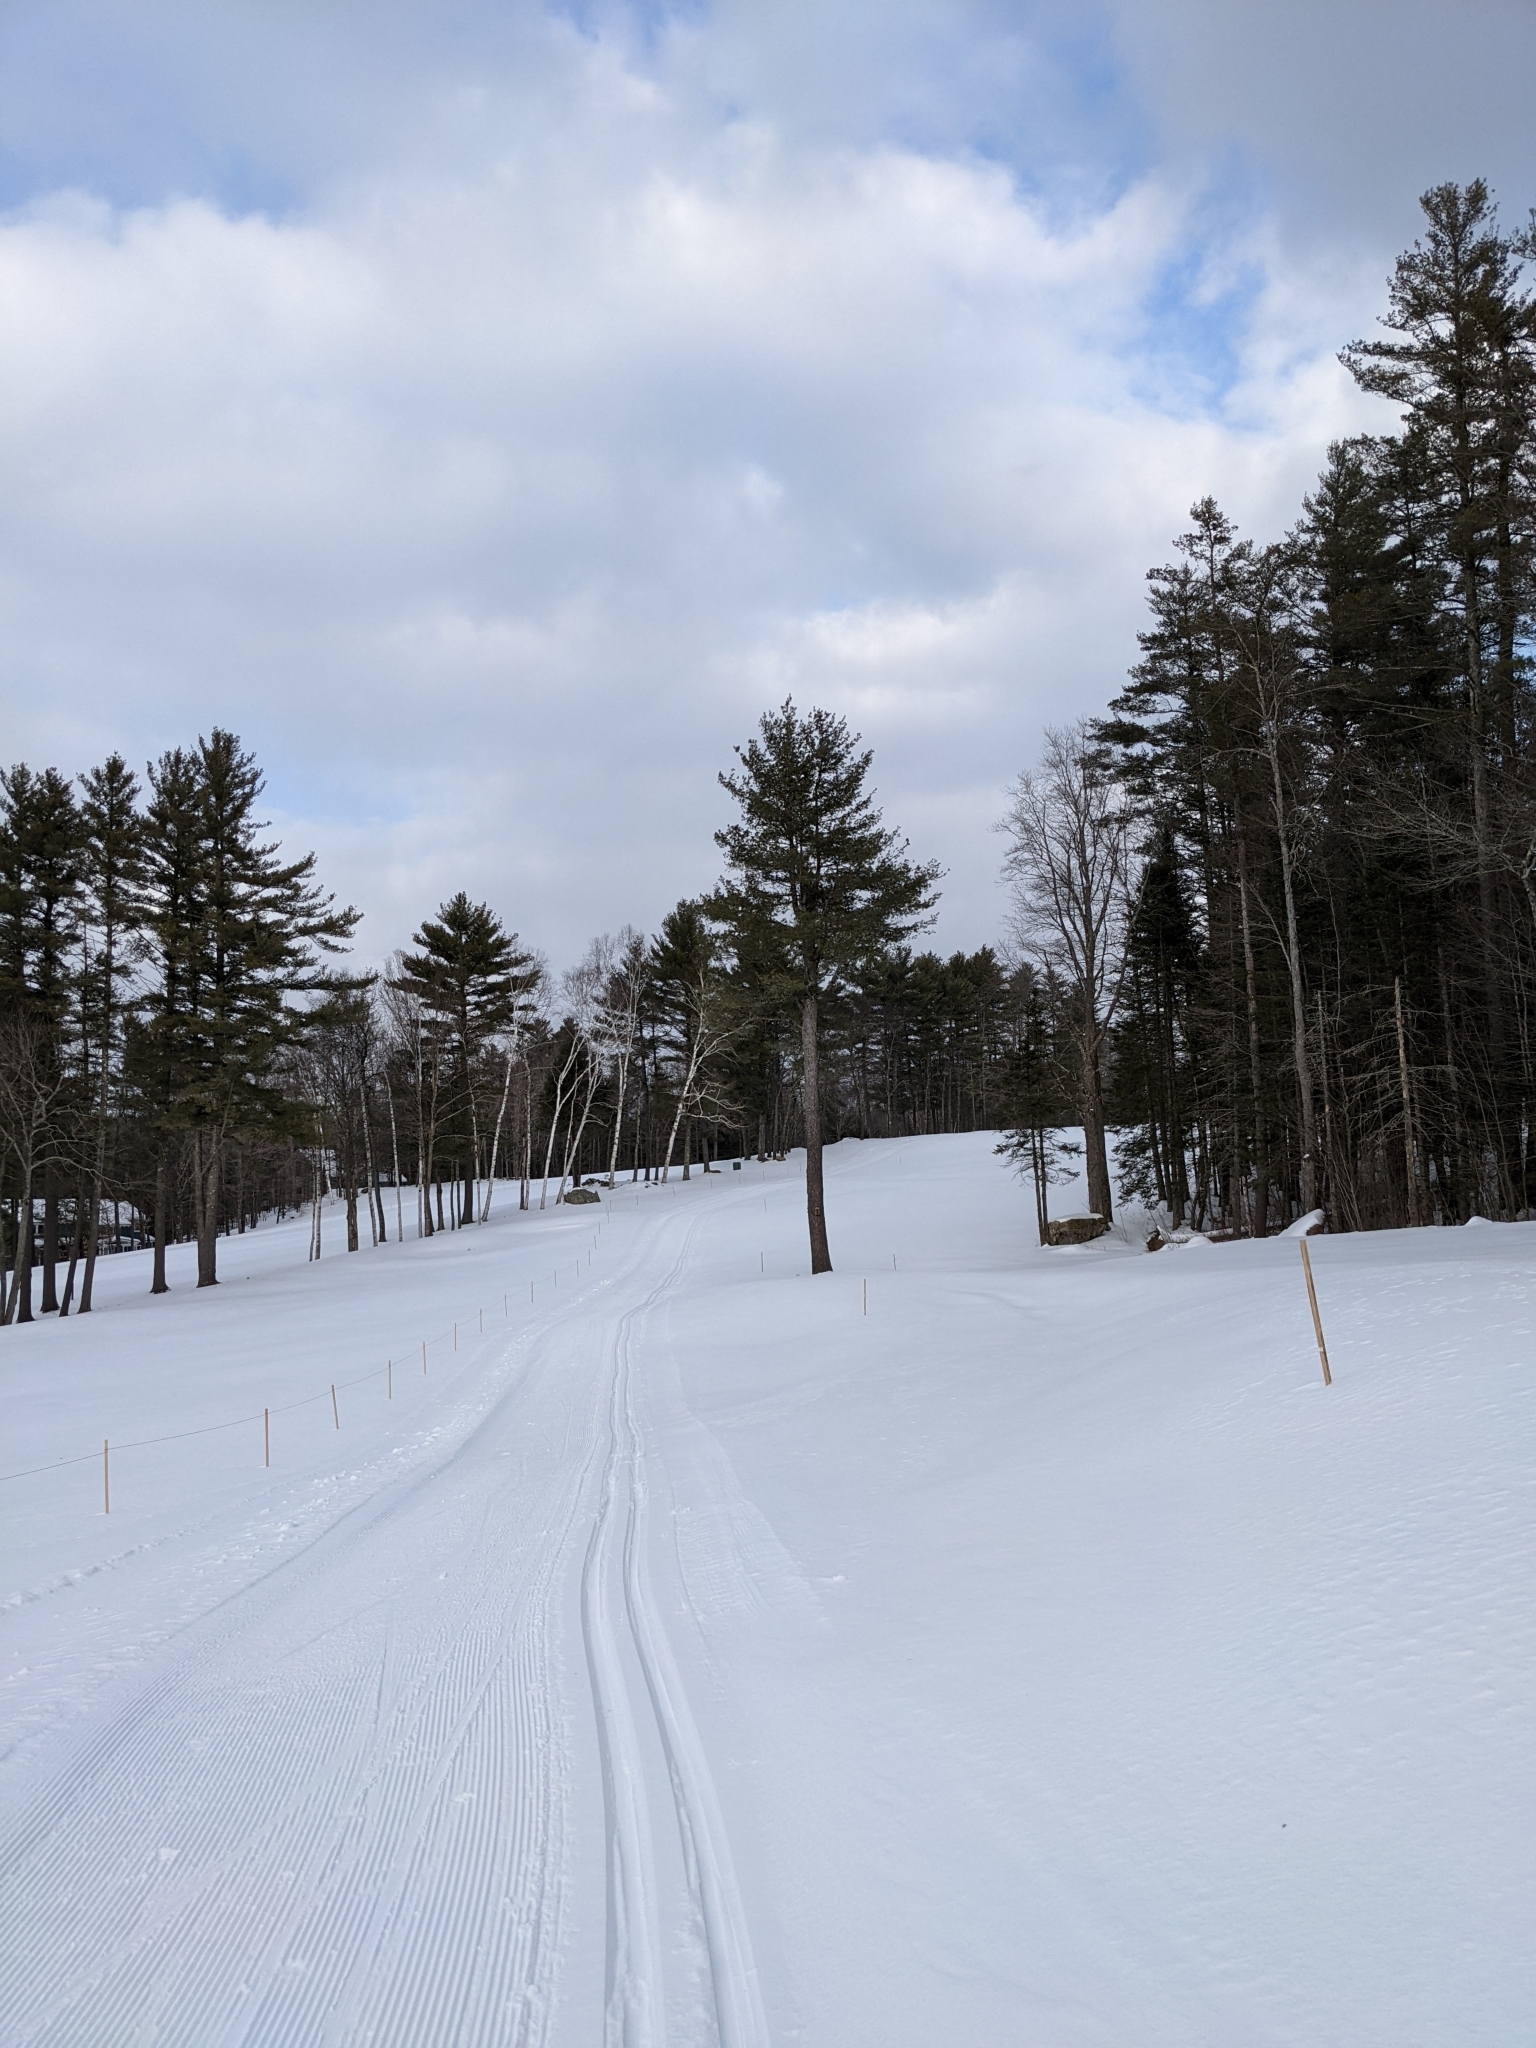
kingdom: Plantae
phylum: Tracheophyta
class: Pinopsida
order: Pinales
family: Pinaceae
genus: Pinus
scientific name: Pinus strobus
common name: Weymouth pine
